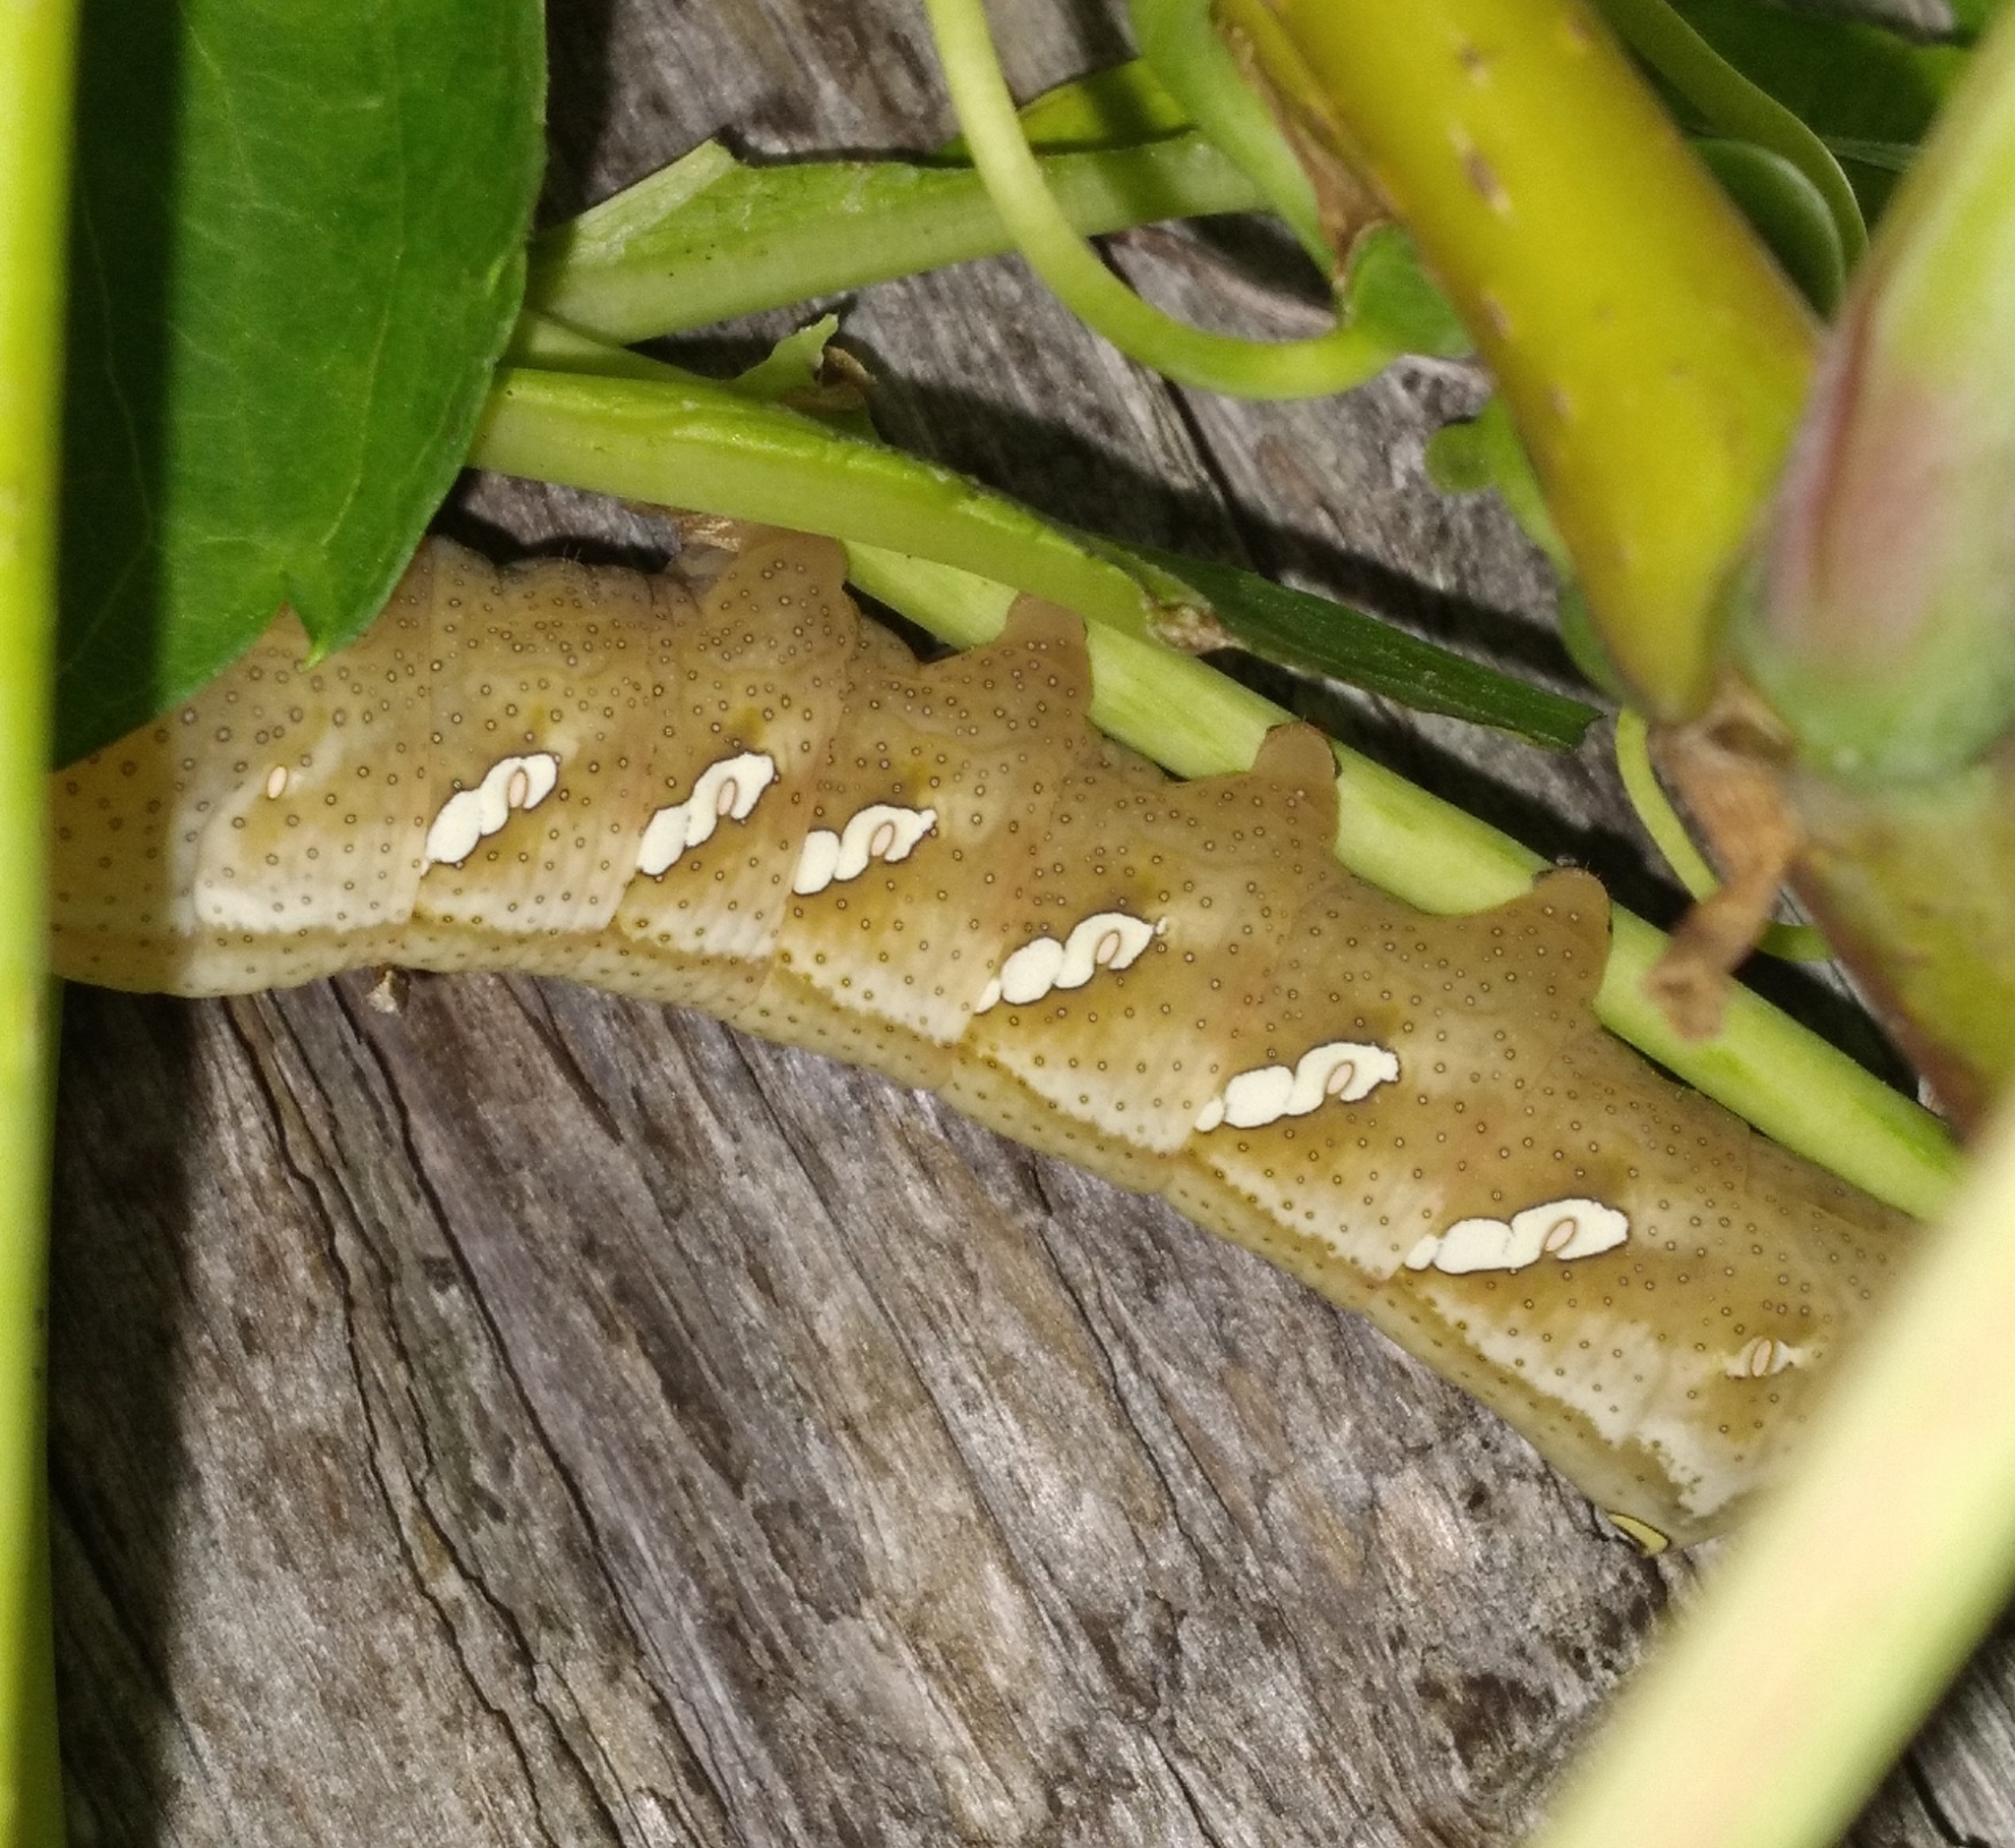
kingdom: Animalia
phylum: Arthropoda
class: Insecta
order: Lepidoptera
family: Sphingidae
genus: Eumorpha
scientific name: Eumorpha achemon
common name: Achemon sphinx
